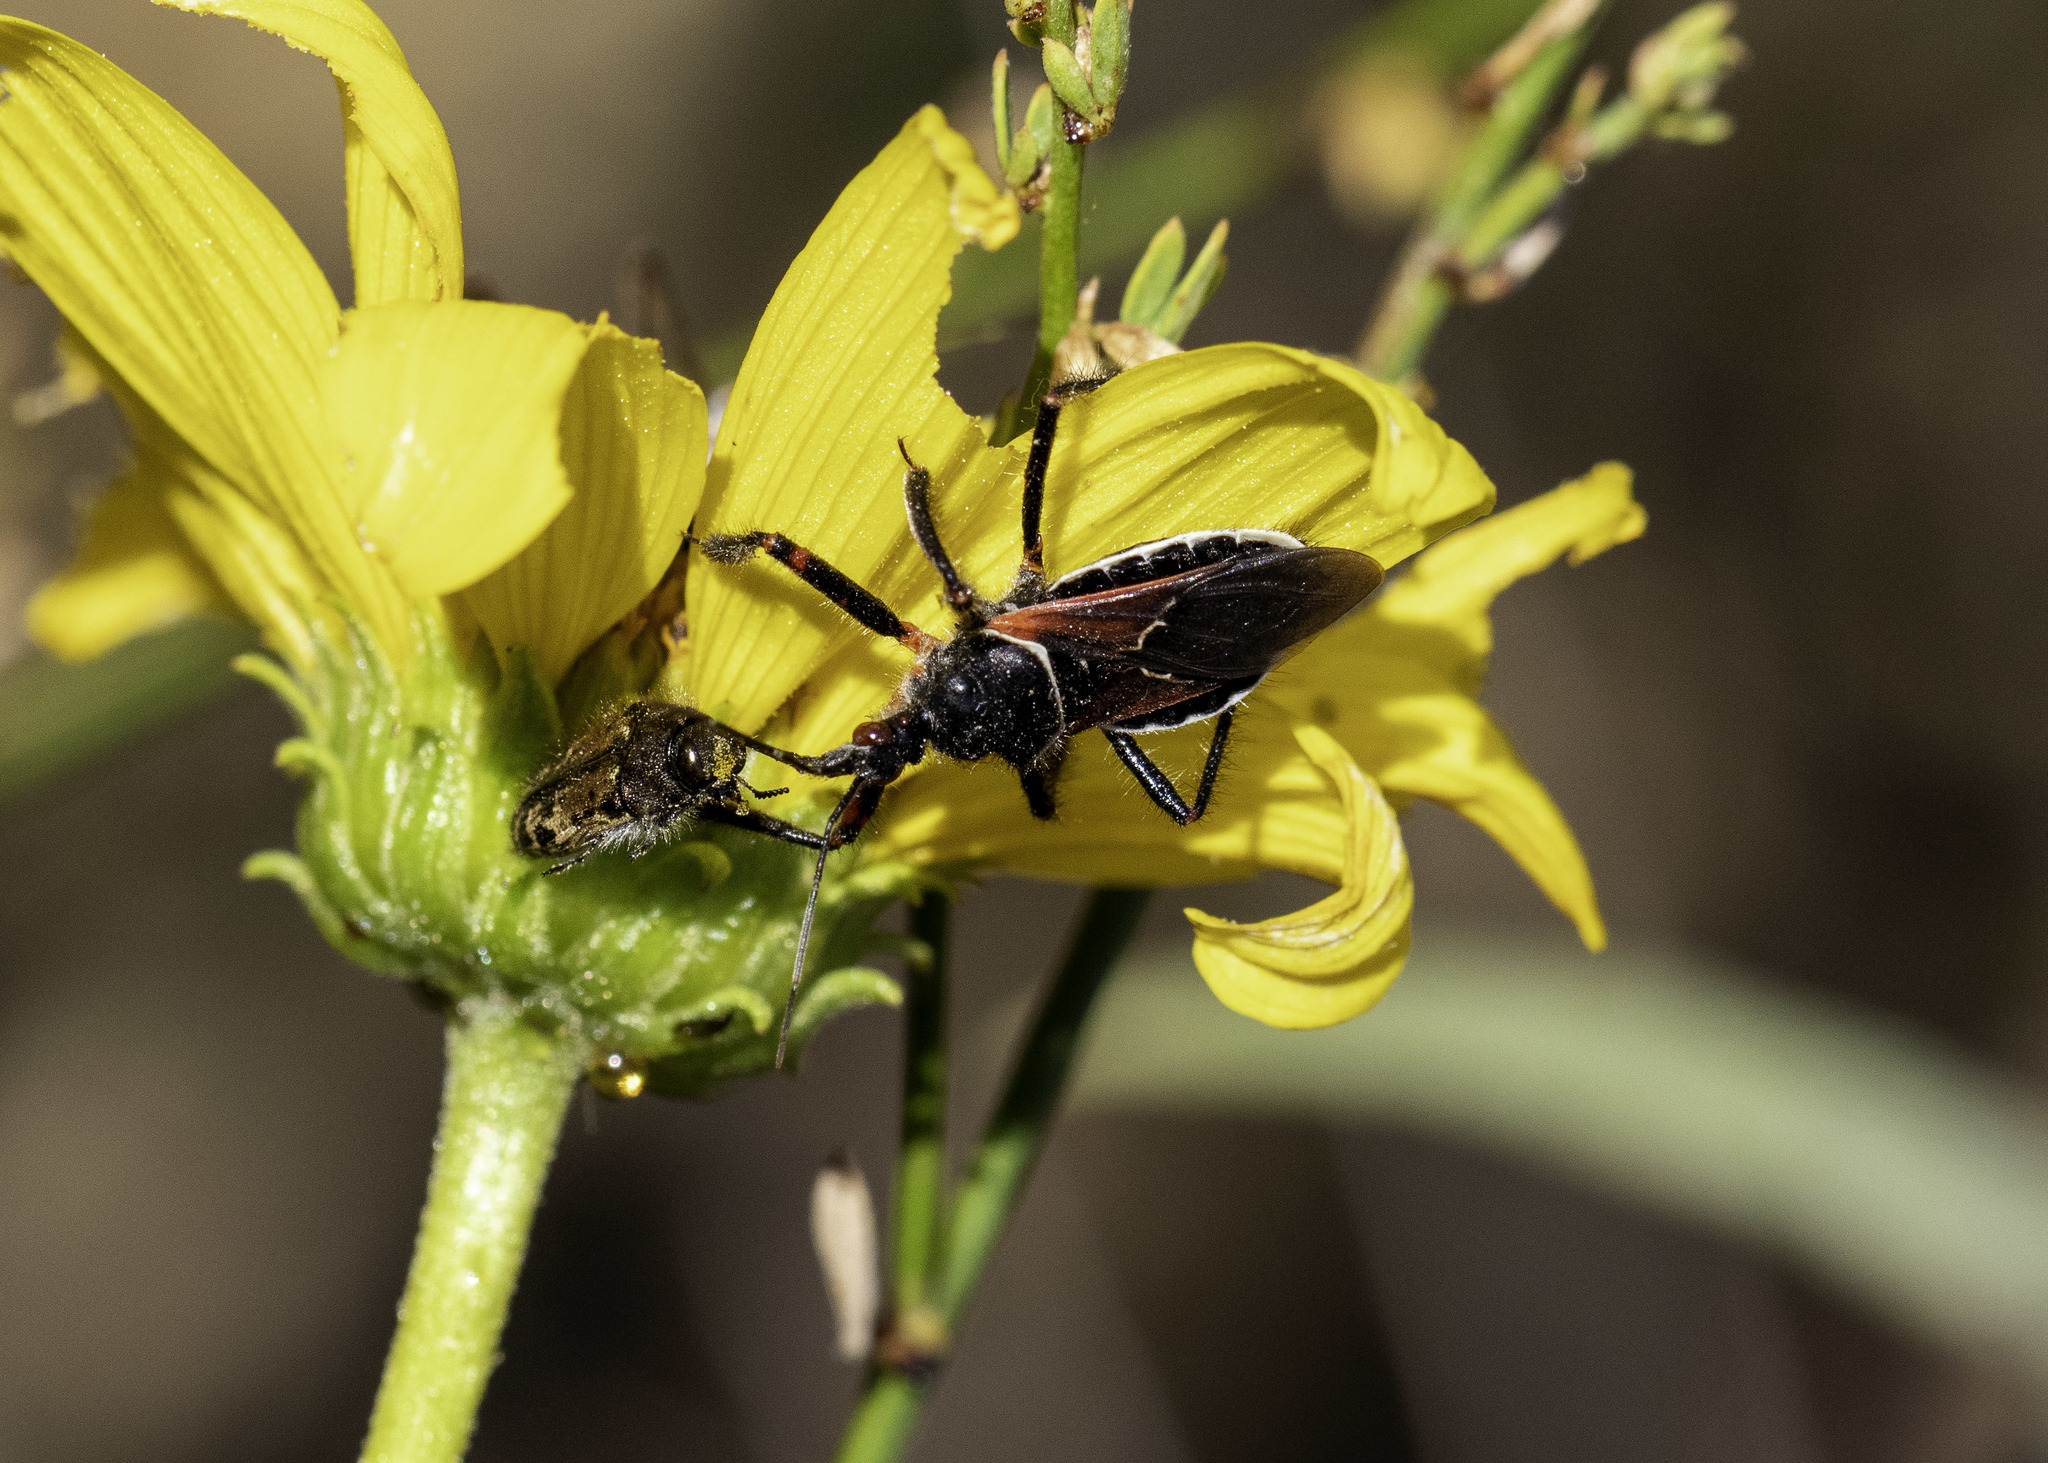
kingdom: Animalia
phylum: Arthropoda
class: Insecta
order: Hemiptera
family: Reduviidae
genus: Apiomerus
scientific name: Apiomerus californicus
